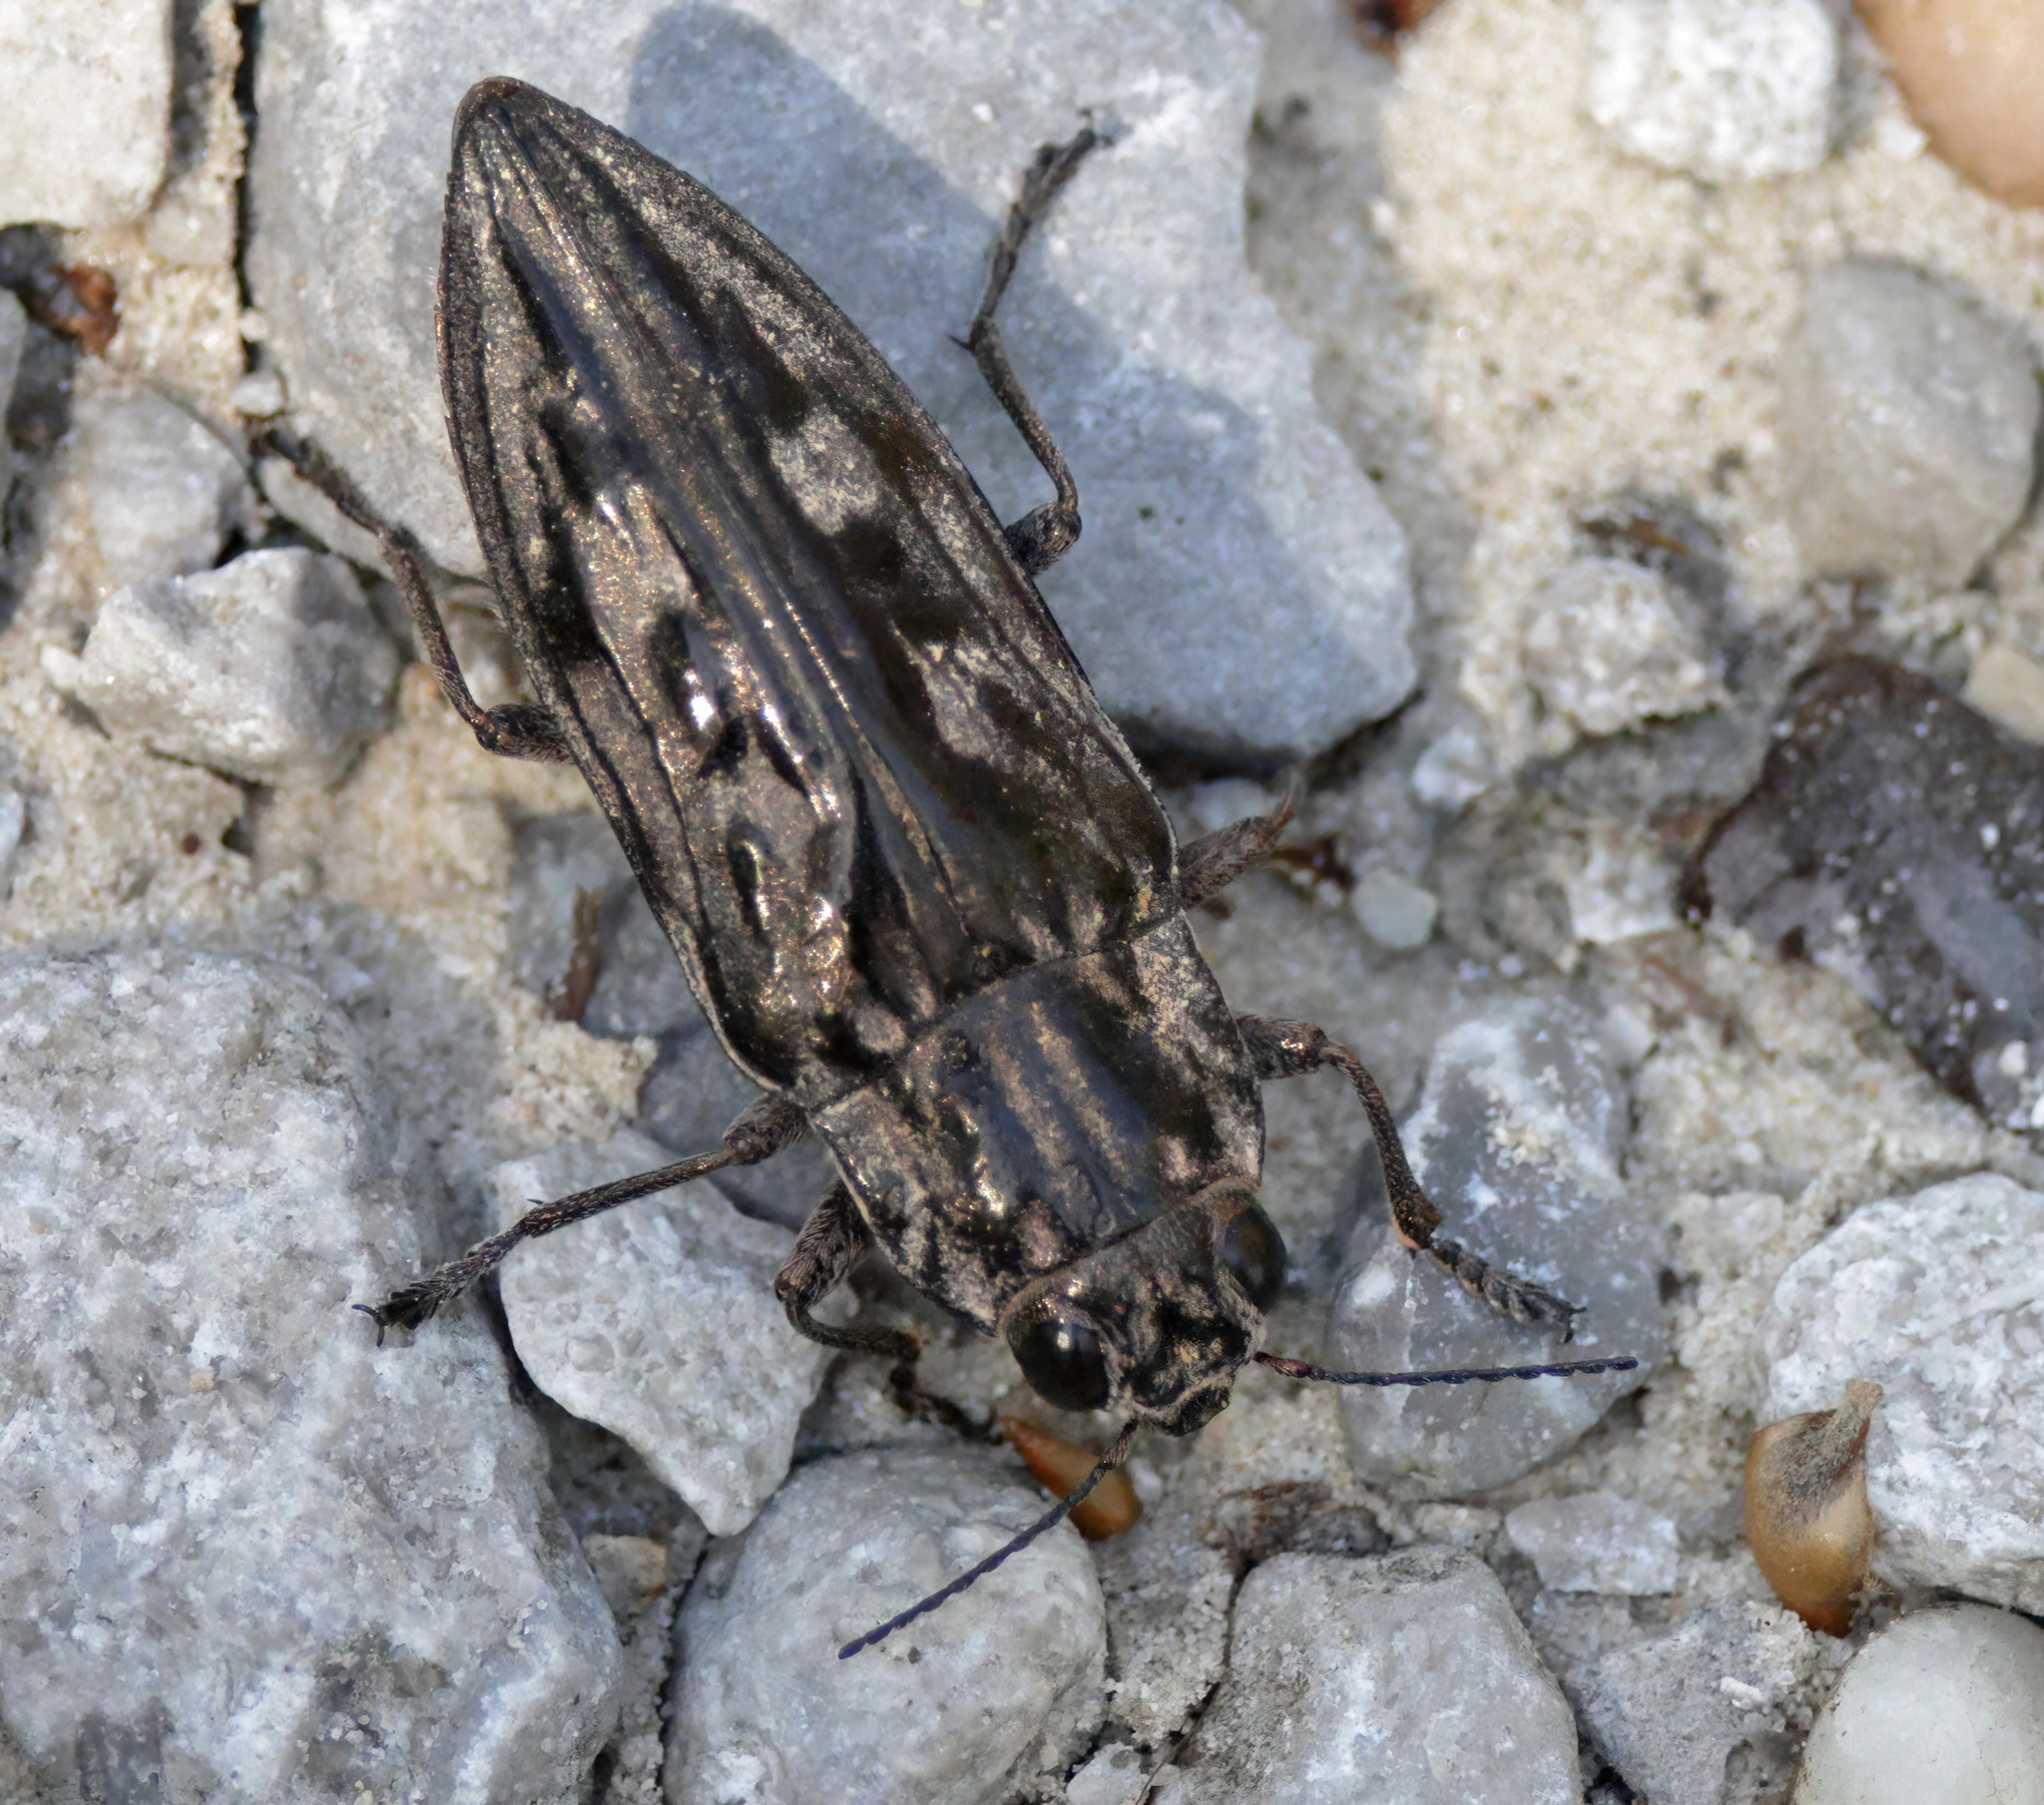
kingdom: Animalia
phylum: Arthropoda
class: Insecta
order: Coleoptera
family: Buprestidae
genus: Chalcophora
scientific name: Chalcophora virginiensis
